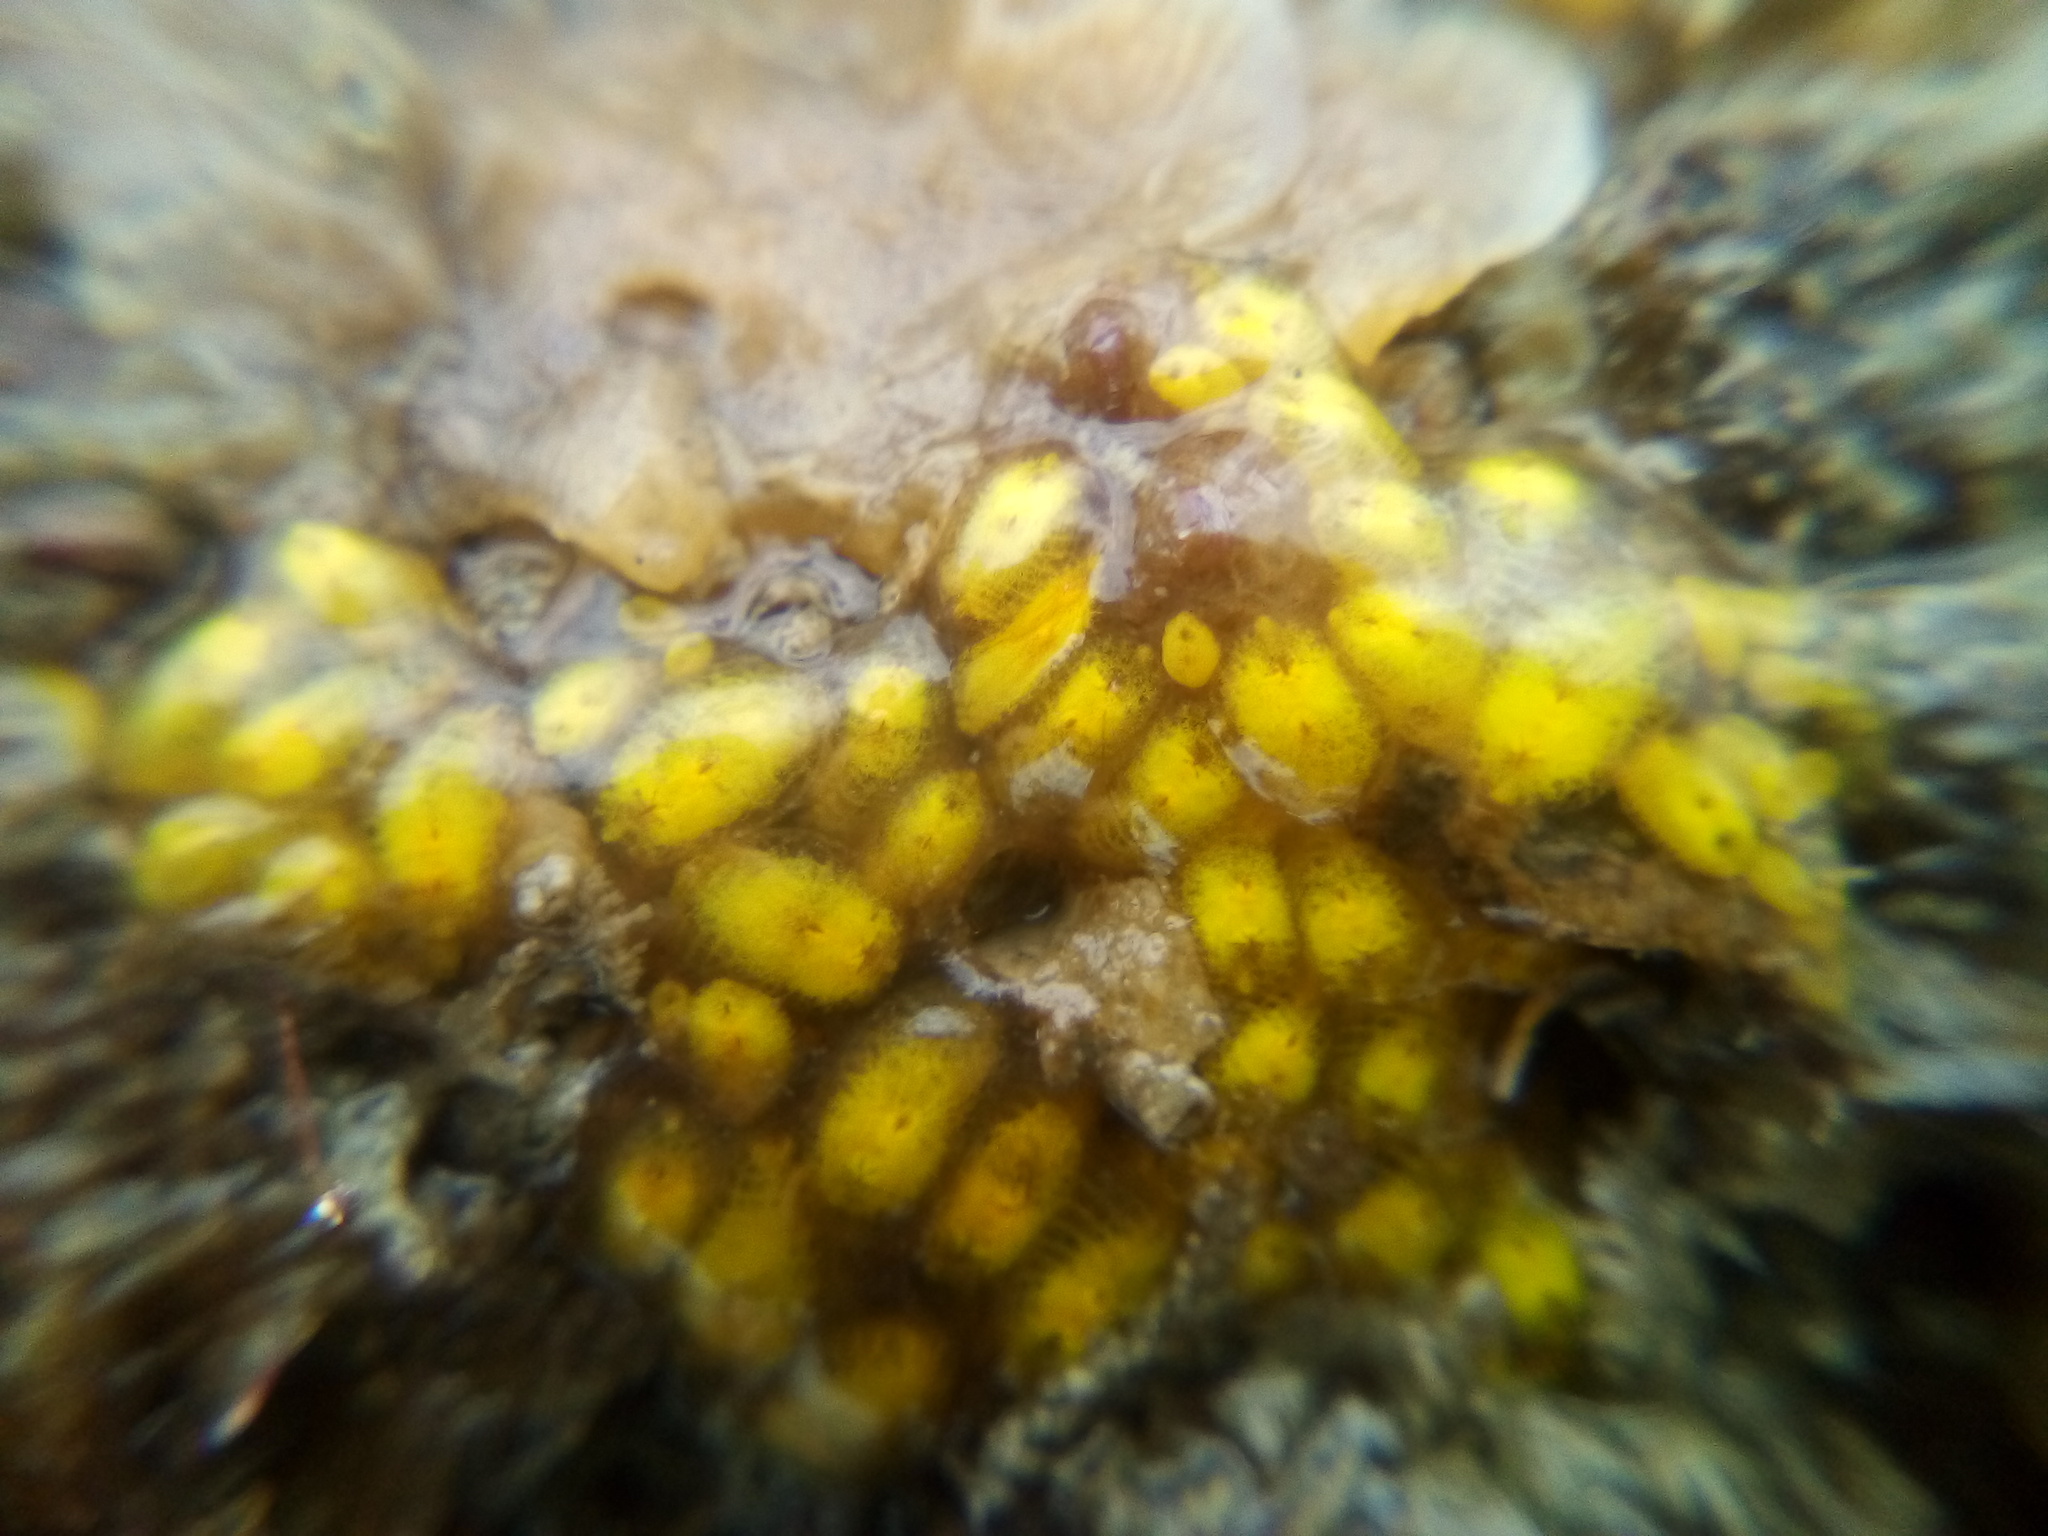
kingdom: Animalia
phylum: Chordata
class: Ascidiacea
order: Stolidobranchia
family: Styelidae
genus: Symplegma
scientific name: Symplegma brakenhielmi
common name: Ascidian
